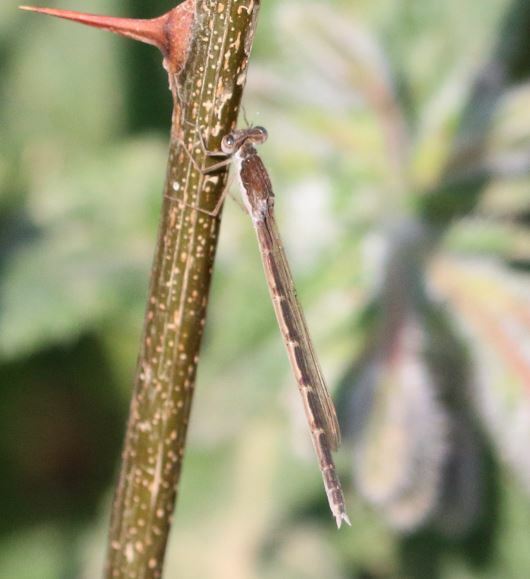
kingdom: Animalia
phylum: Arthropoda
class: Insecta
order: Odonata
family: Lestidae
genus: Sympecma
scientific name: Sympecma fusca
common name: Common winter damsel
